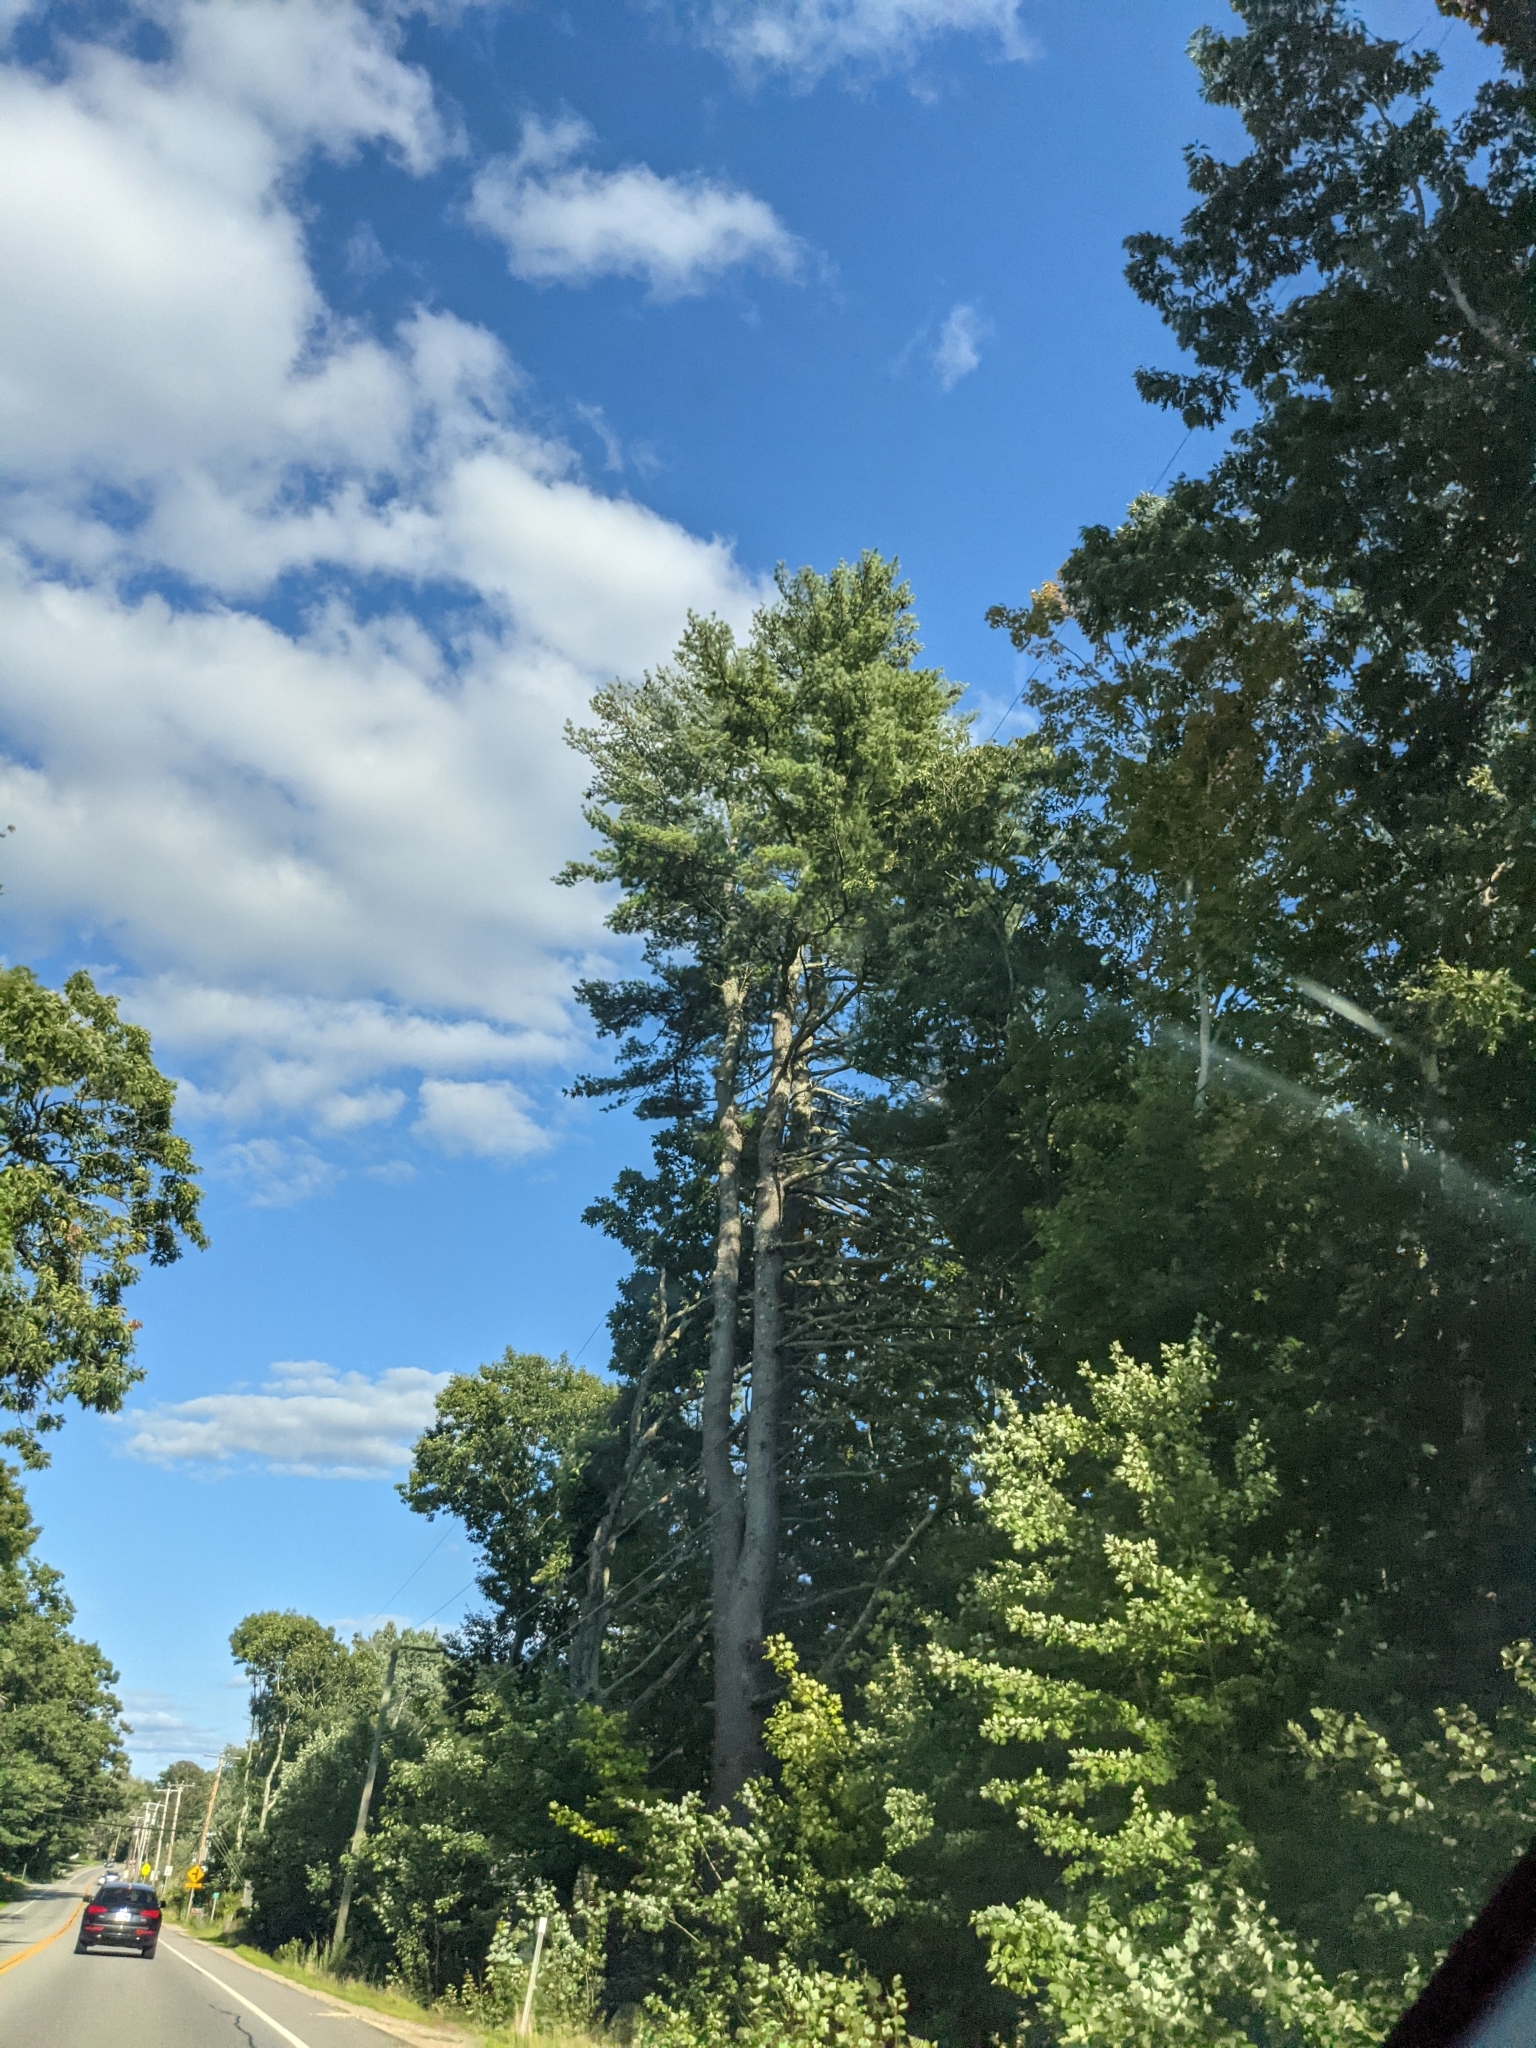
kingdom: Plantae
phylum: Tracheophyta
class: Pinopsida
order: Pinales
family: Pinaceae
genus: Pinus
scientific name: Pinus strobus
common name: Weymouth pine
